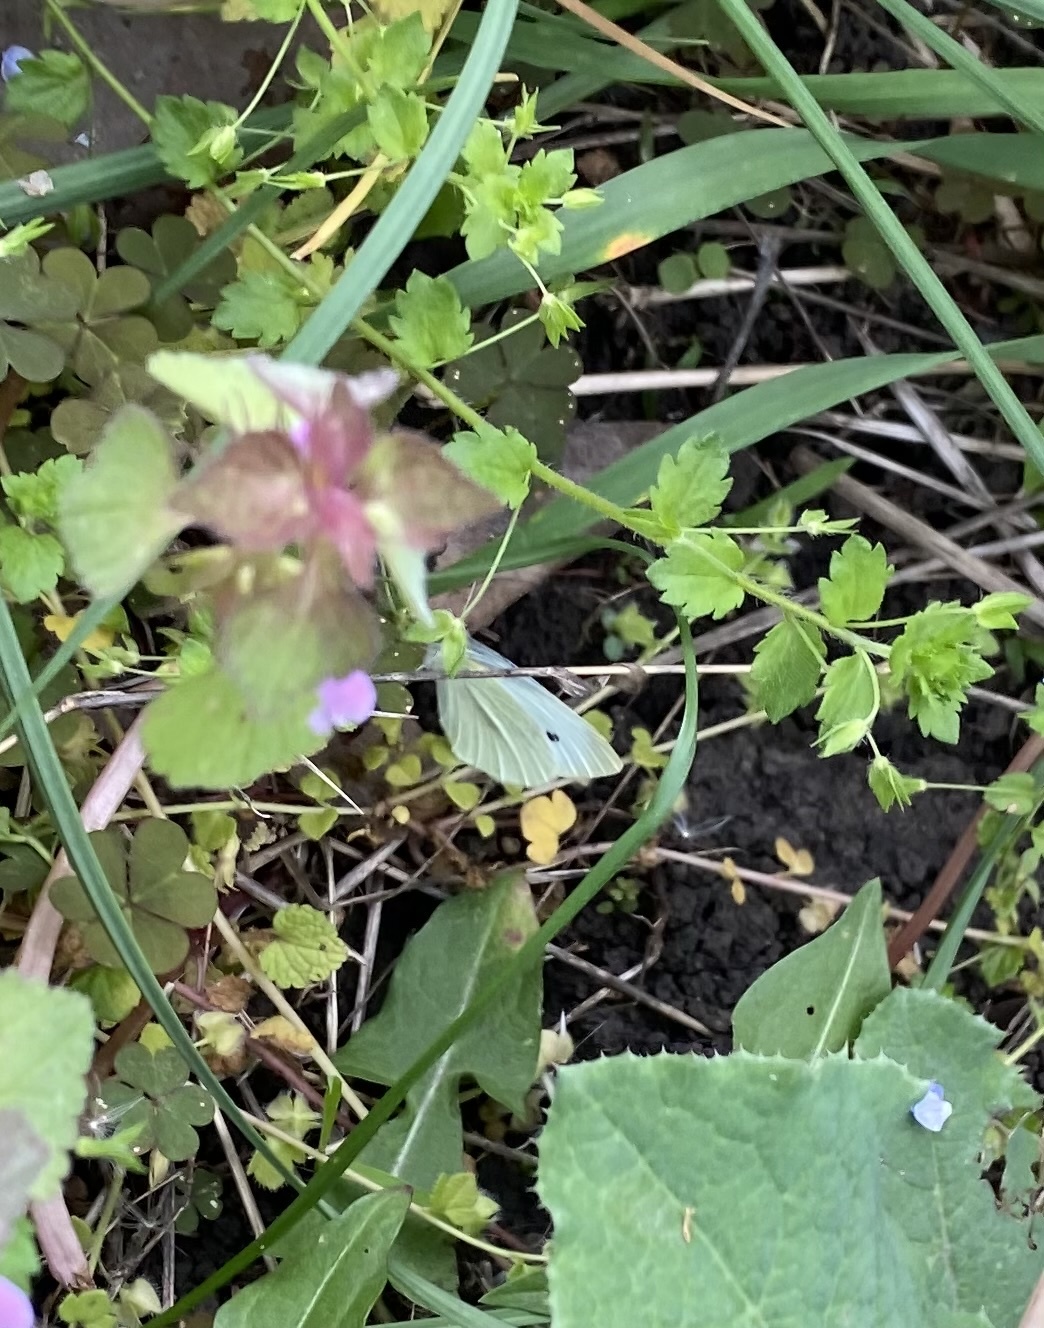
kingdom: Animalia
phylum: Arthropoda
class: Insecta
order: Lepidoptera
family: Pieridae
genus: Pieris
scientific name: Pieris rapae
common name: Small white
